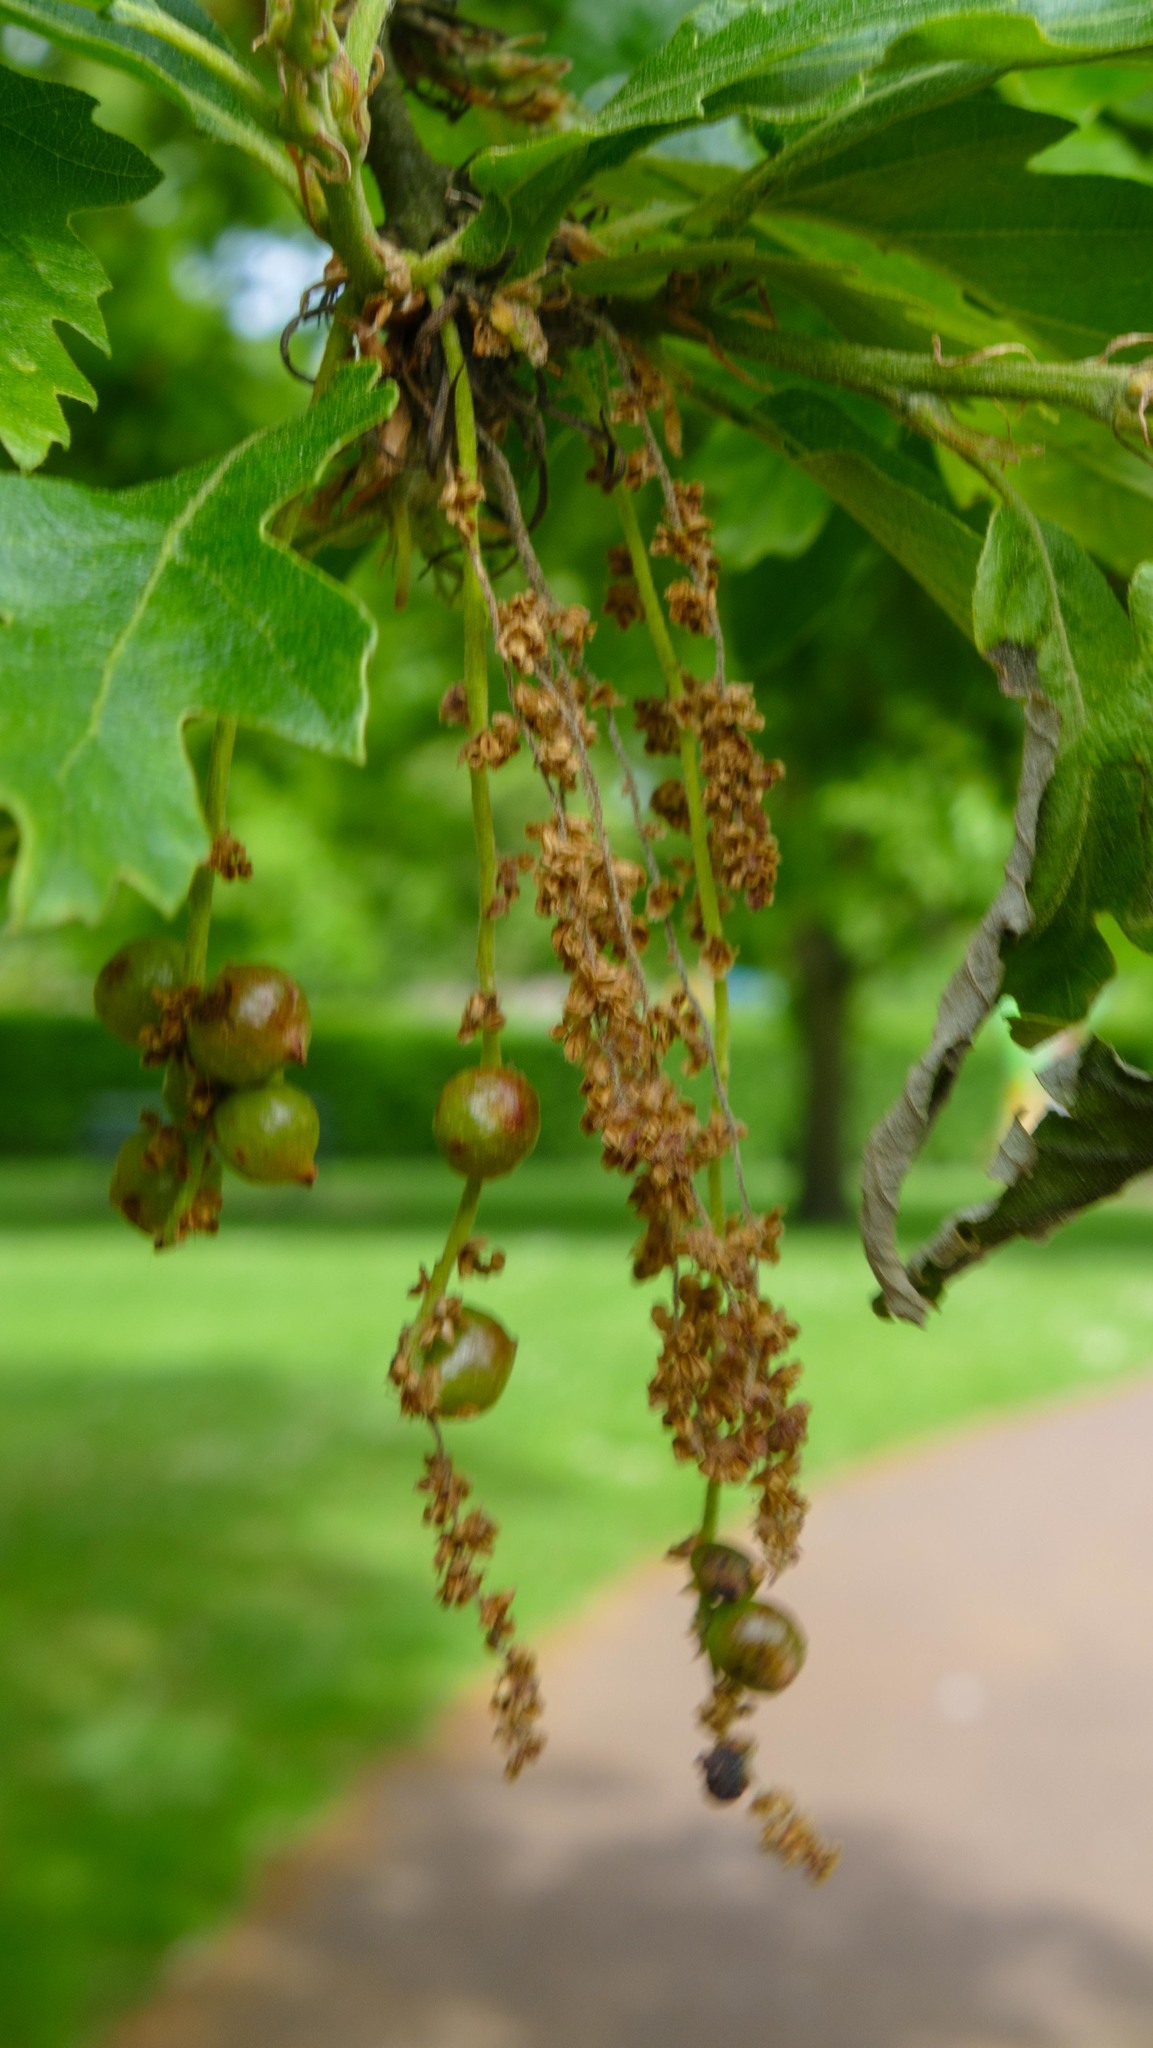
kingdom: Animalia
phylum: Arthropoda
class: Insecta
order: Hymenoptera
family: Cynipidae
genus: Andricus
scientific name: Andricus grossulariae
